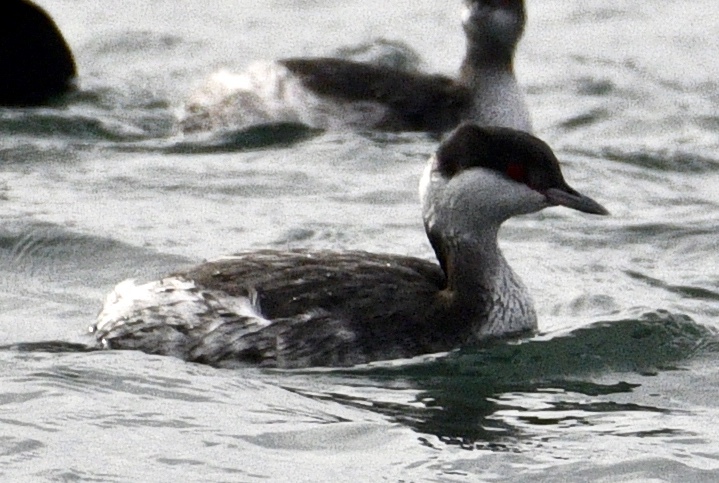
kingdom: Animalia
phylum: Chordata
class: Aves
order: Podicipediformes
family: Podicipedidae
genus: Podiceps
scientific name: Podiceps auritus
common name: Horned grebe
